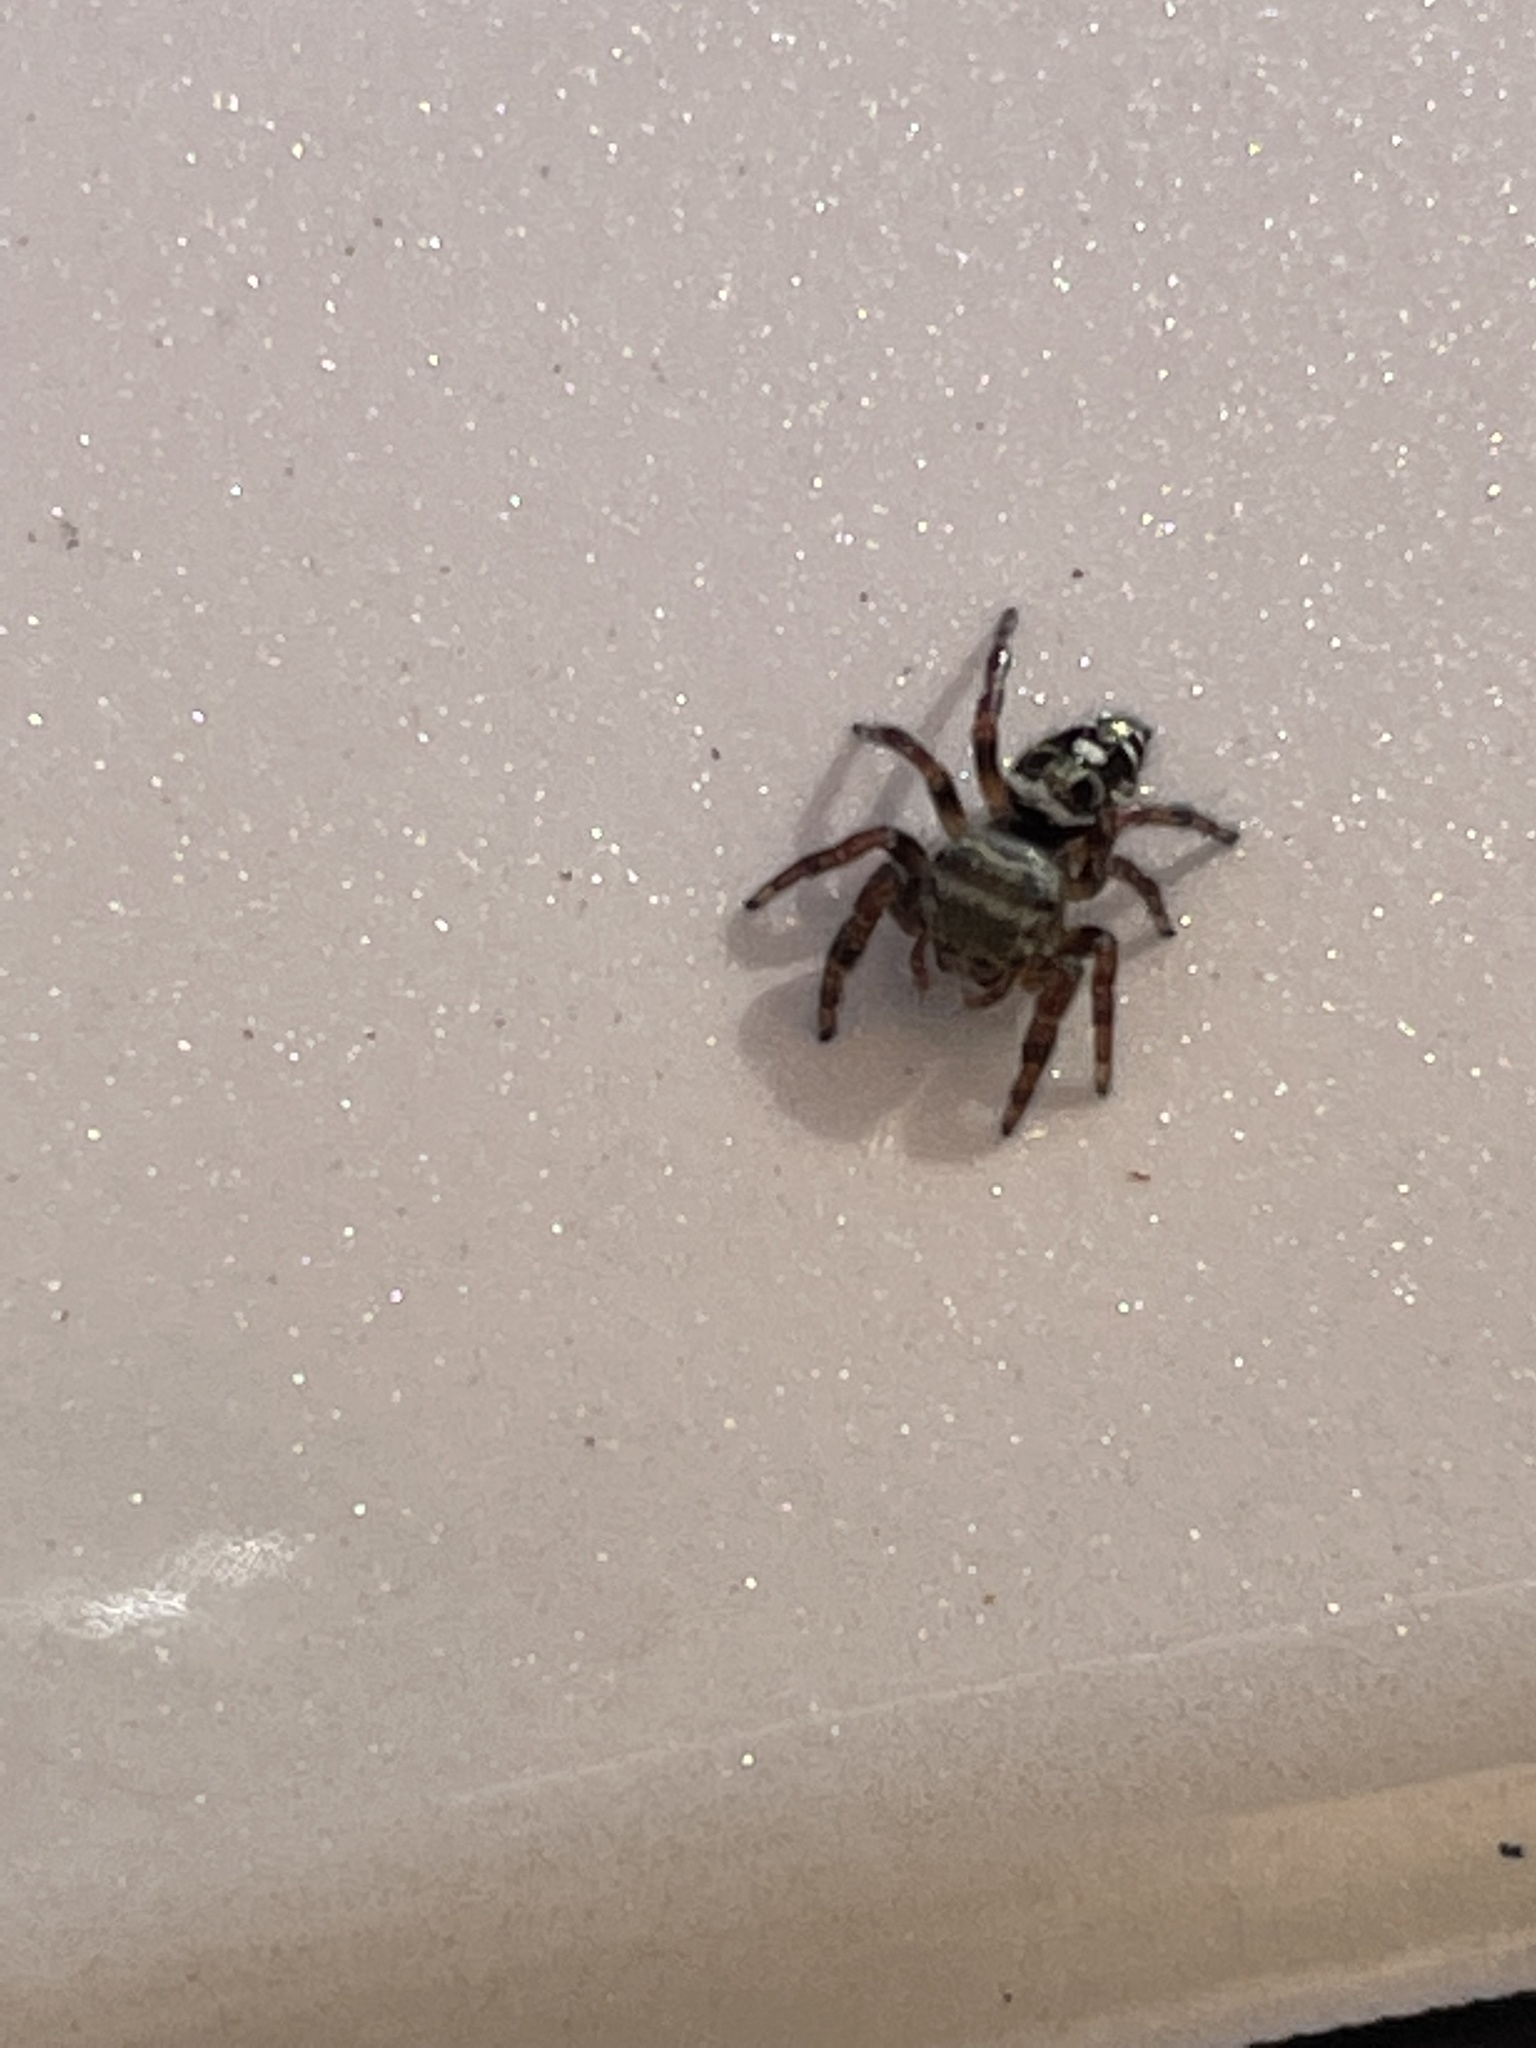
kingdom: Animalia
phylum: Arthropoda
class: Arachnida
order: Araneae
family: Salticidae
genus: Phidippus
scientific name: Phidippus audax
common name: Bold jumper
